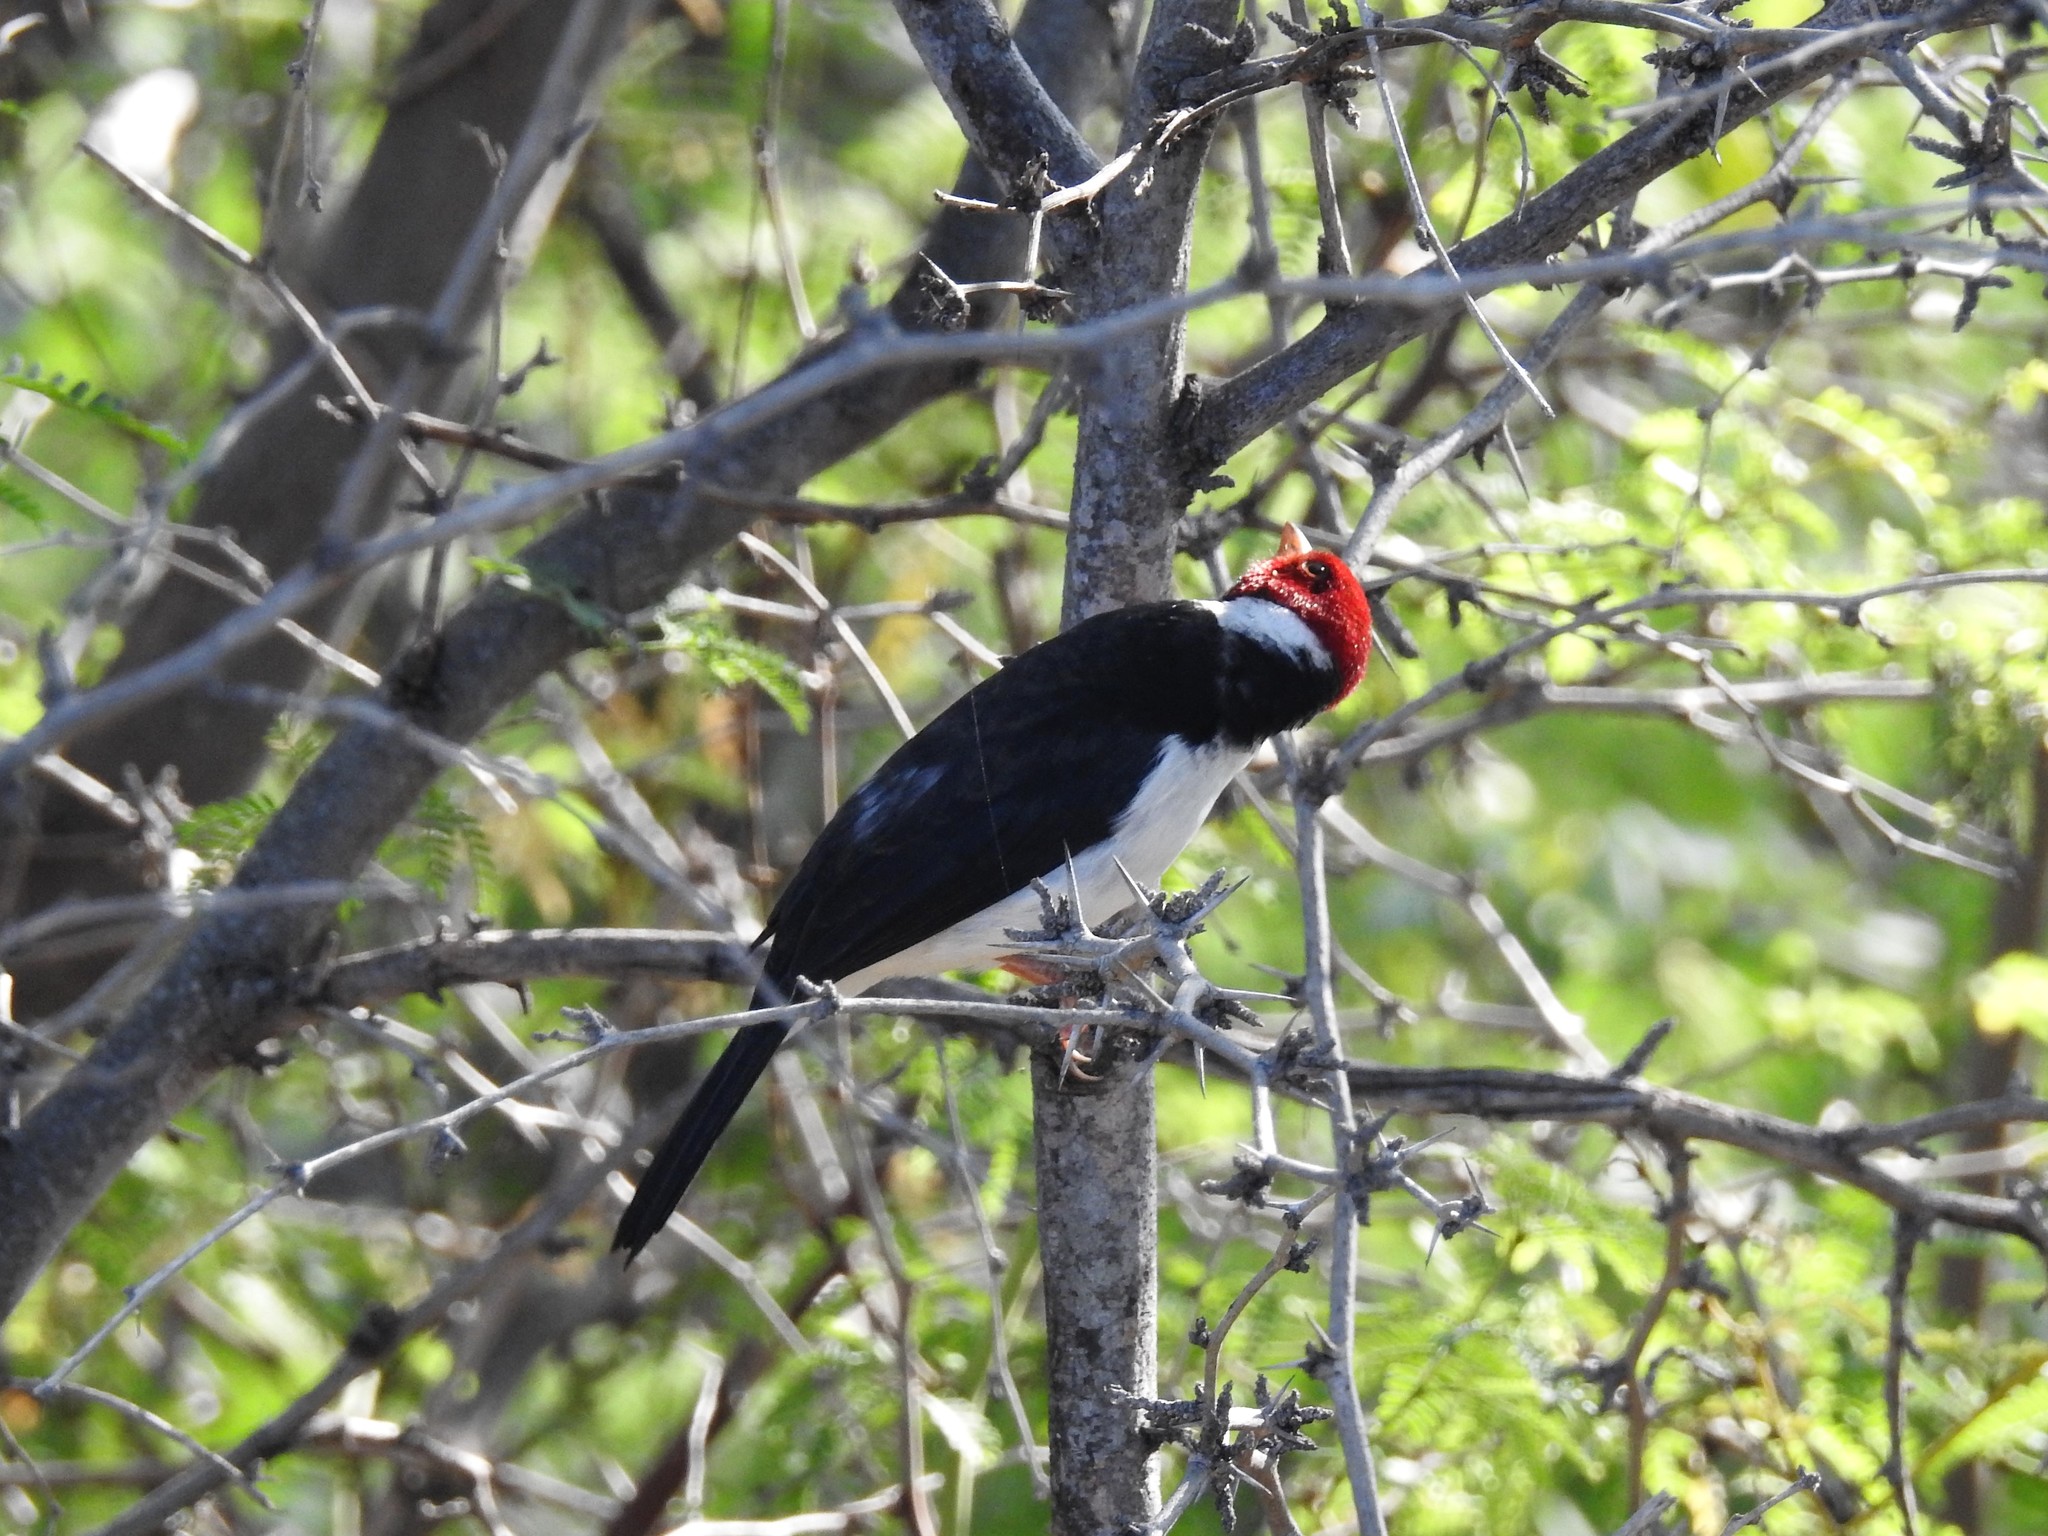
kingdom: Animalia
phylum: Chordata
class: Aves
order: Passeriformes
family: Thraupidae
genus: Paroaria
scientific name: Paroaria capitata
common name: Yellow-billed cardinal
